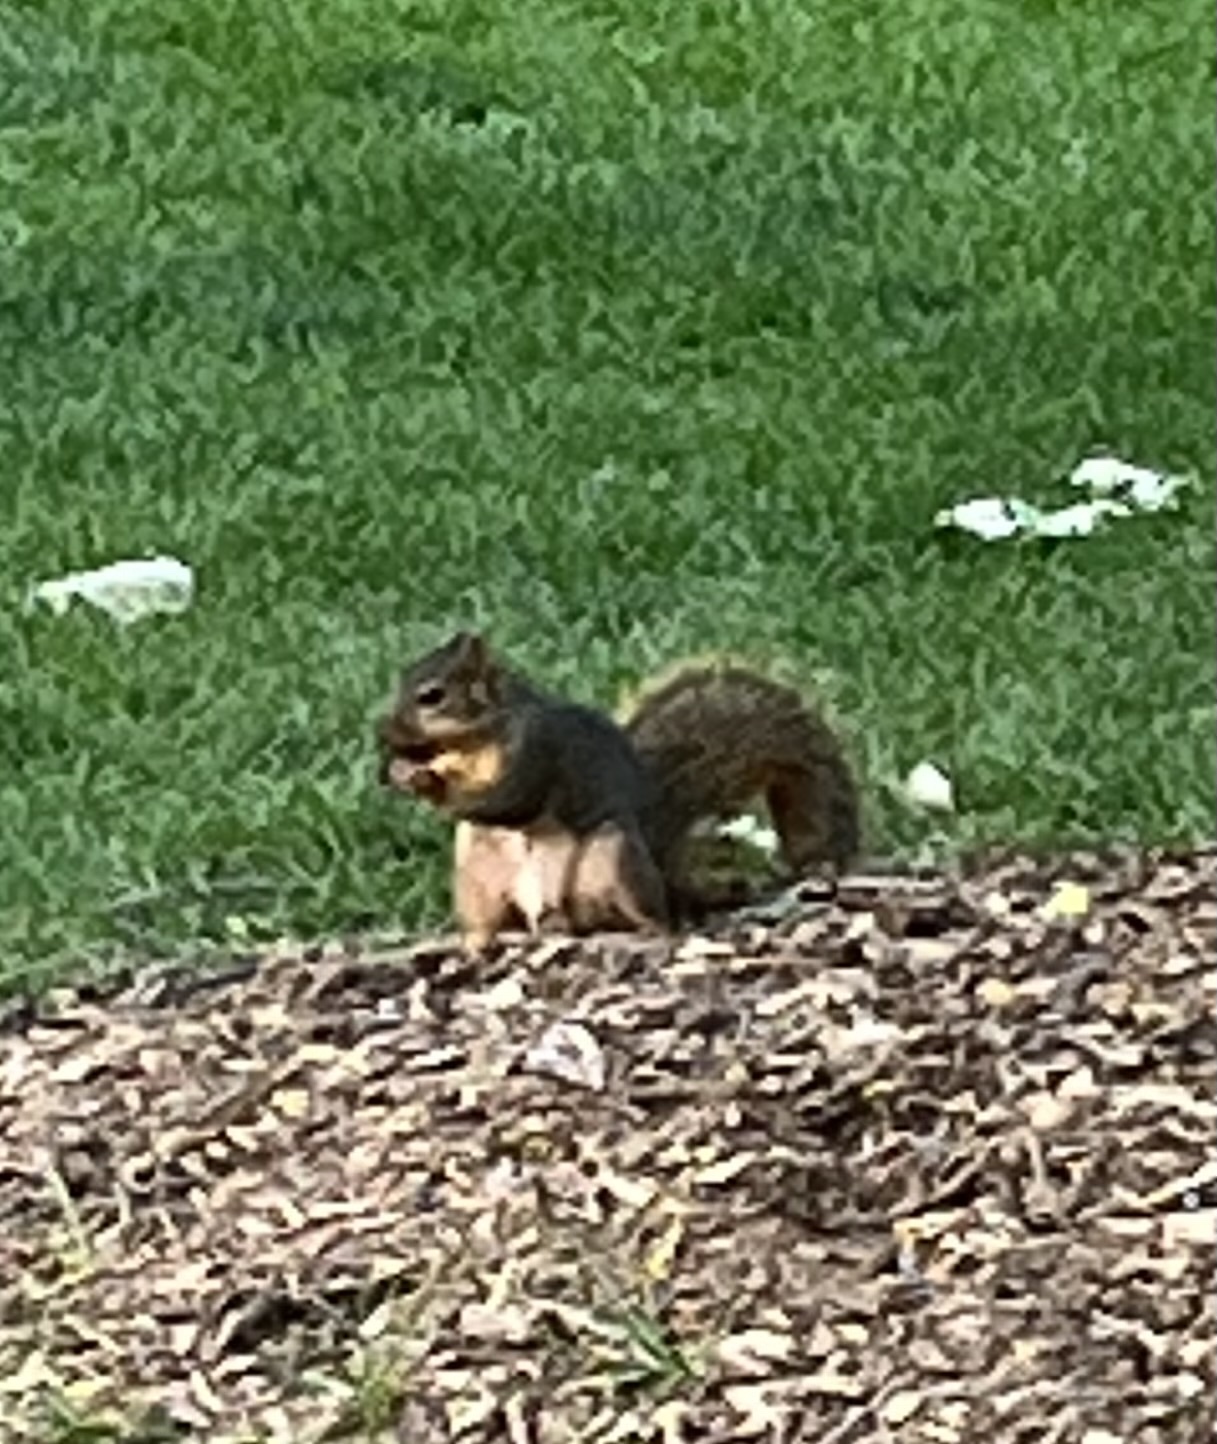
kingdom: Animalia
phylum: Chordata
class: Mammalia
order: Rodentia
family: Sciuridae
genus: Sciurus
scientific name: Sciurus niger
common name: Fox squirrel
